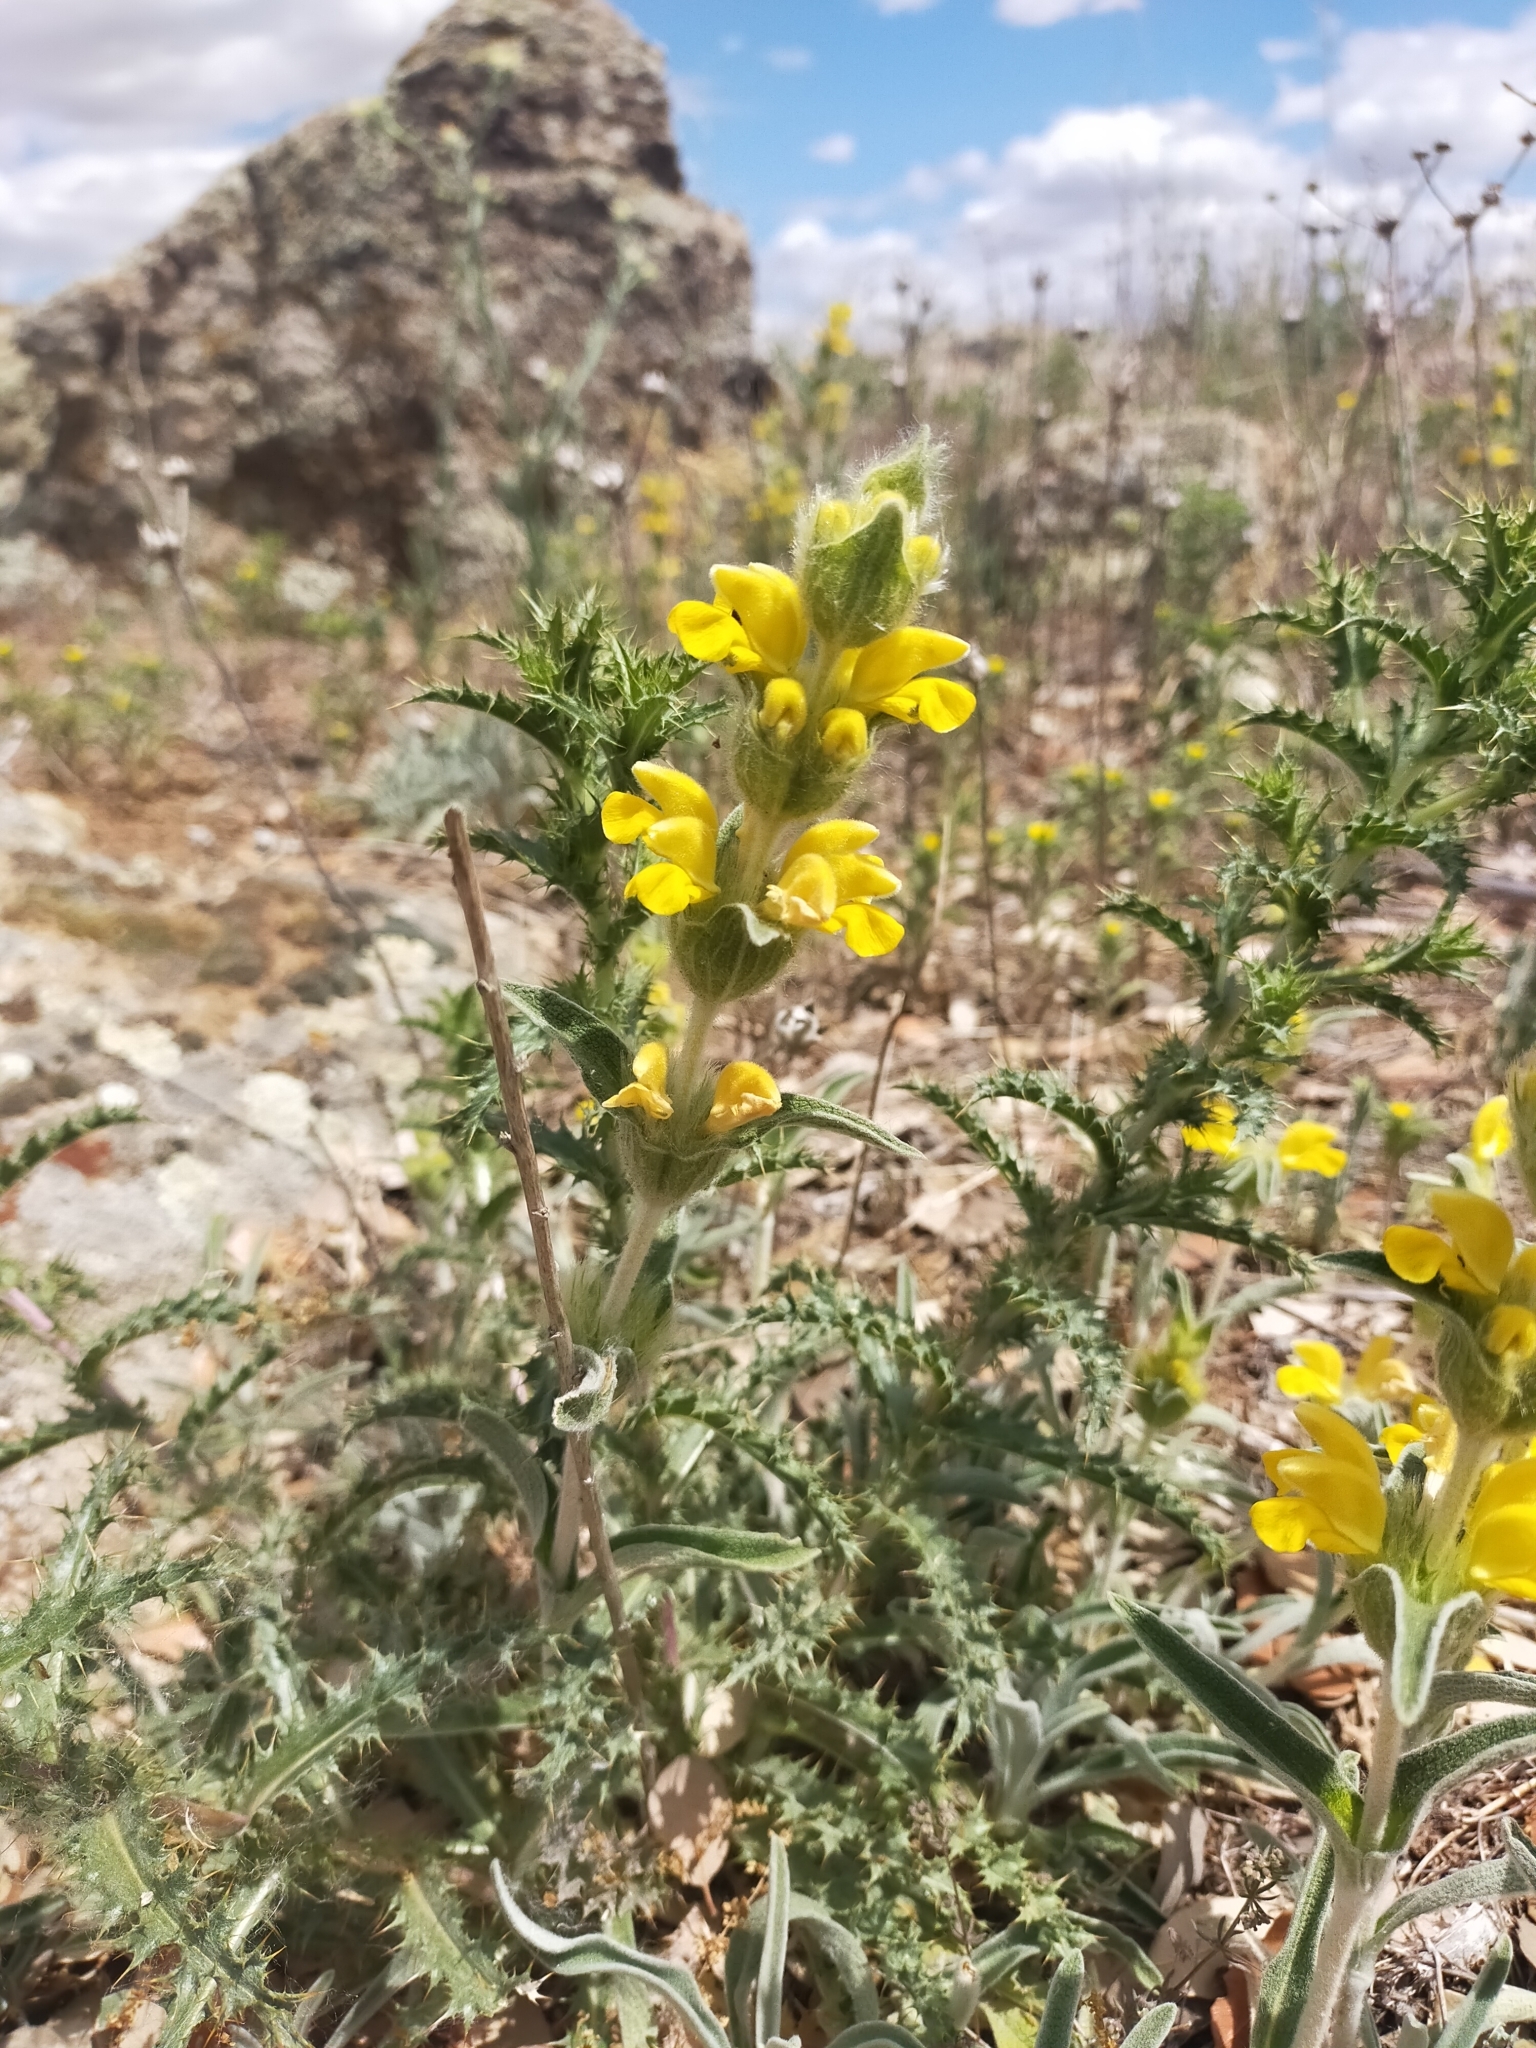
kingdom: Plantae
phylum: Tracheophyta
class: Magnoliopsida
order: Lamiales
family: Lamiaceae
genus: Phlomis
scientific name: Phlomis lychnitis
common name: Lampwickplant
